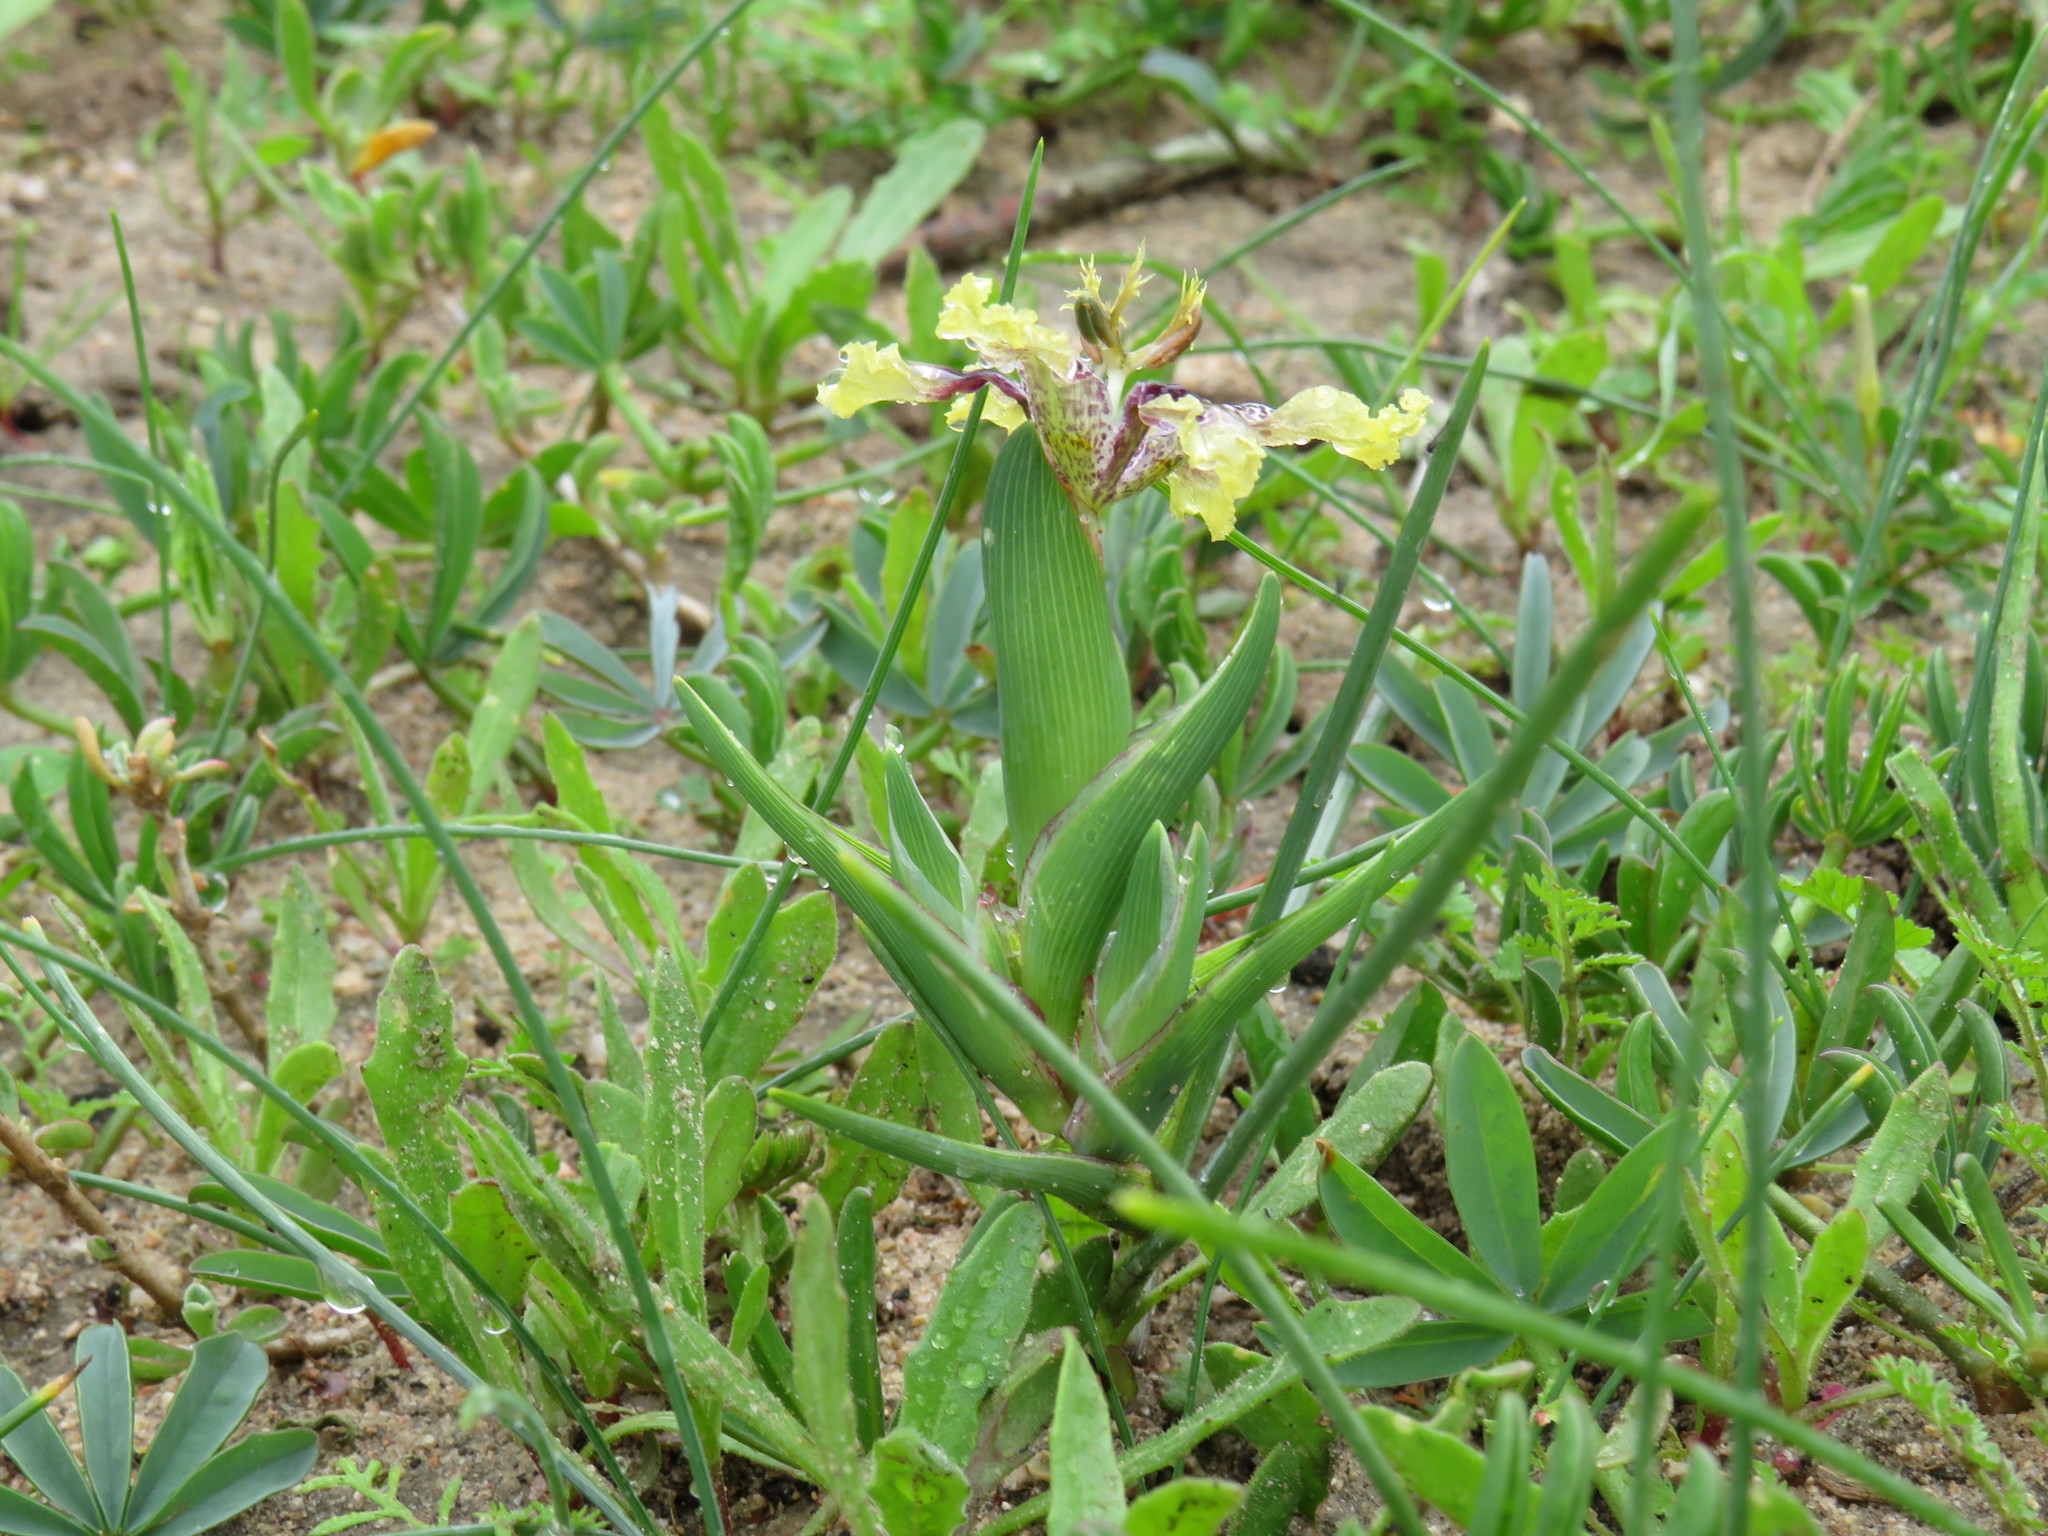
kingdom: Plantae
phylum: Tracheophyta
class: Liliopsida
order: Asparagales
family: Iridaceae
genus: Ferraria
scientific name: Ferraria densepunctulata
